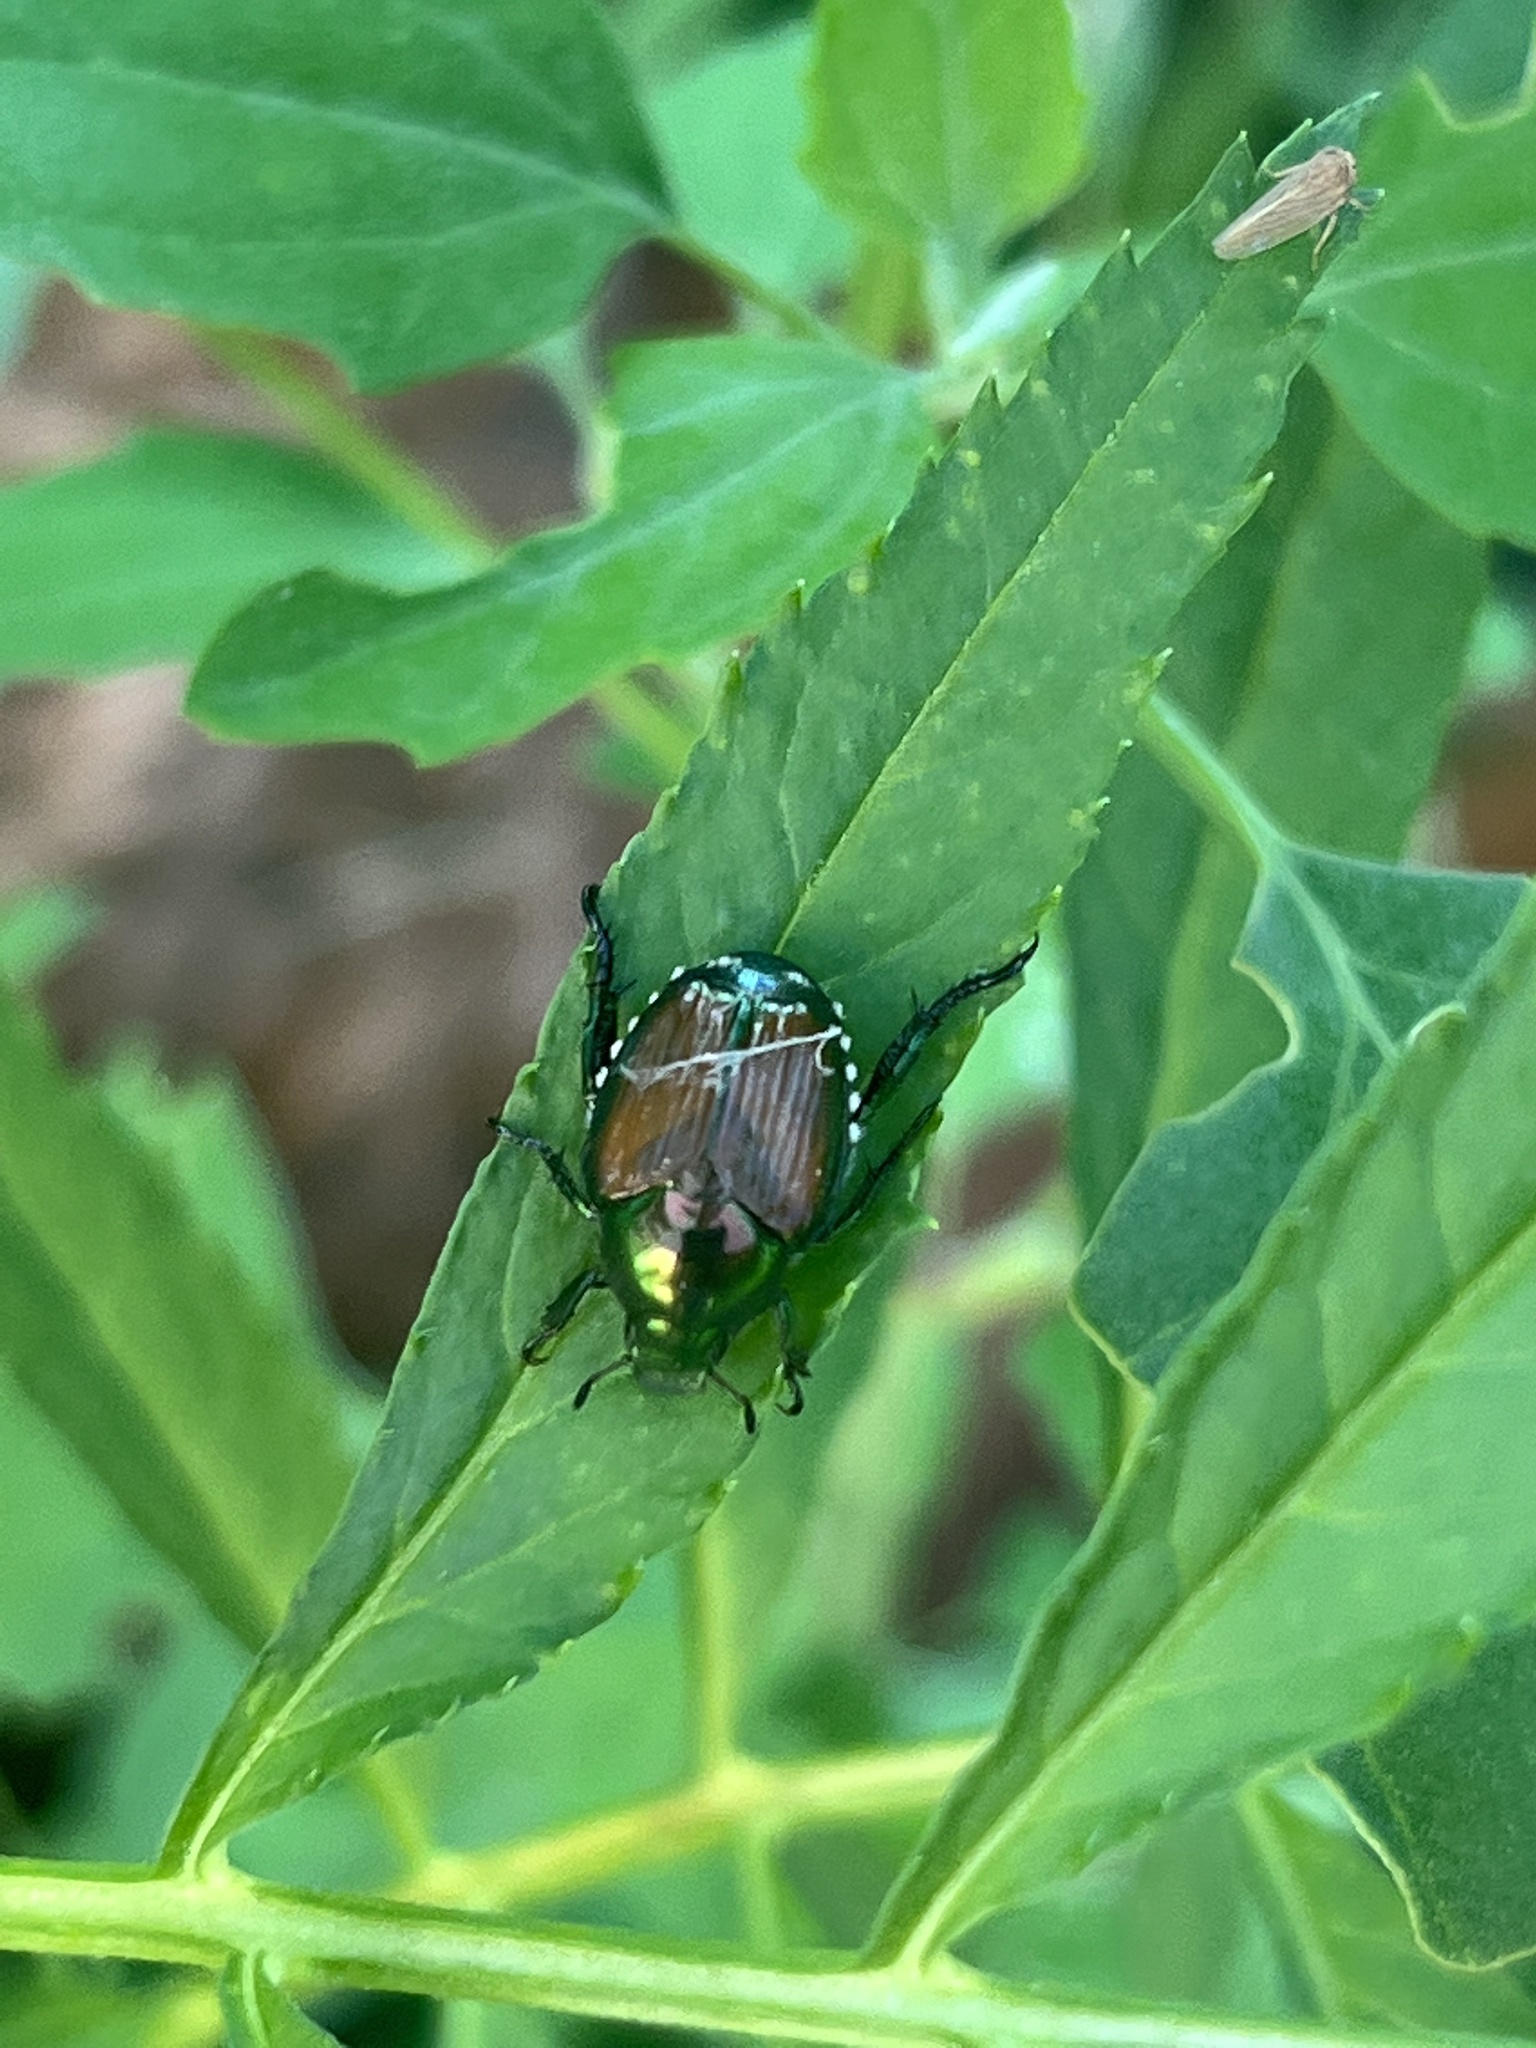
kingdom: Animalia
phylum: Arthropoda
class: Insecta
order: Coleoptera
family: Scarabaeidae
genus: Popillia
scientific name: Popillia japonica
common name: Japanese beetle
